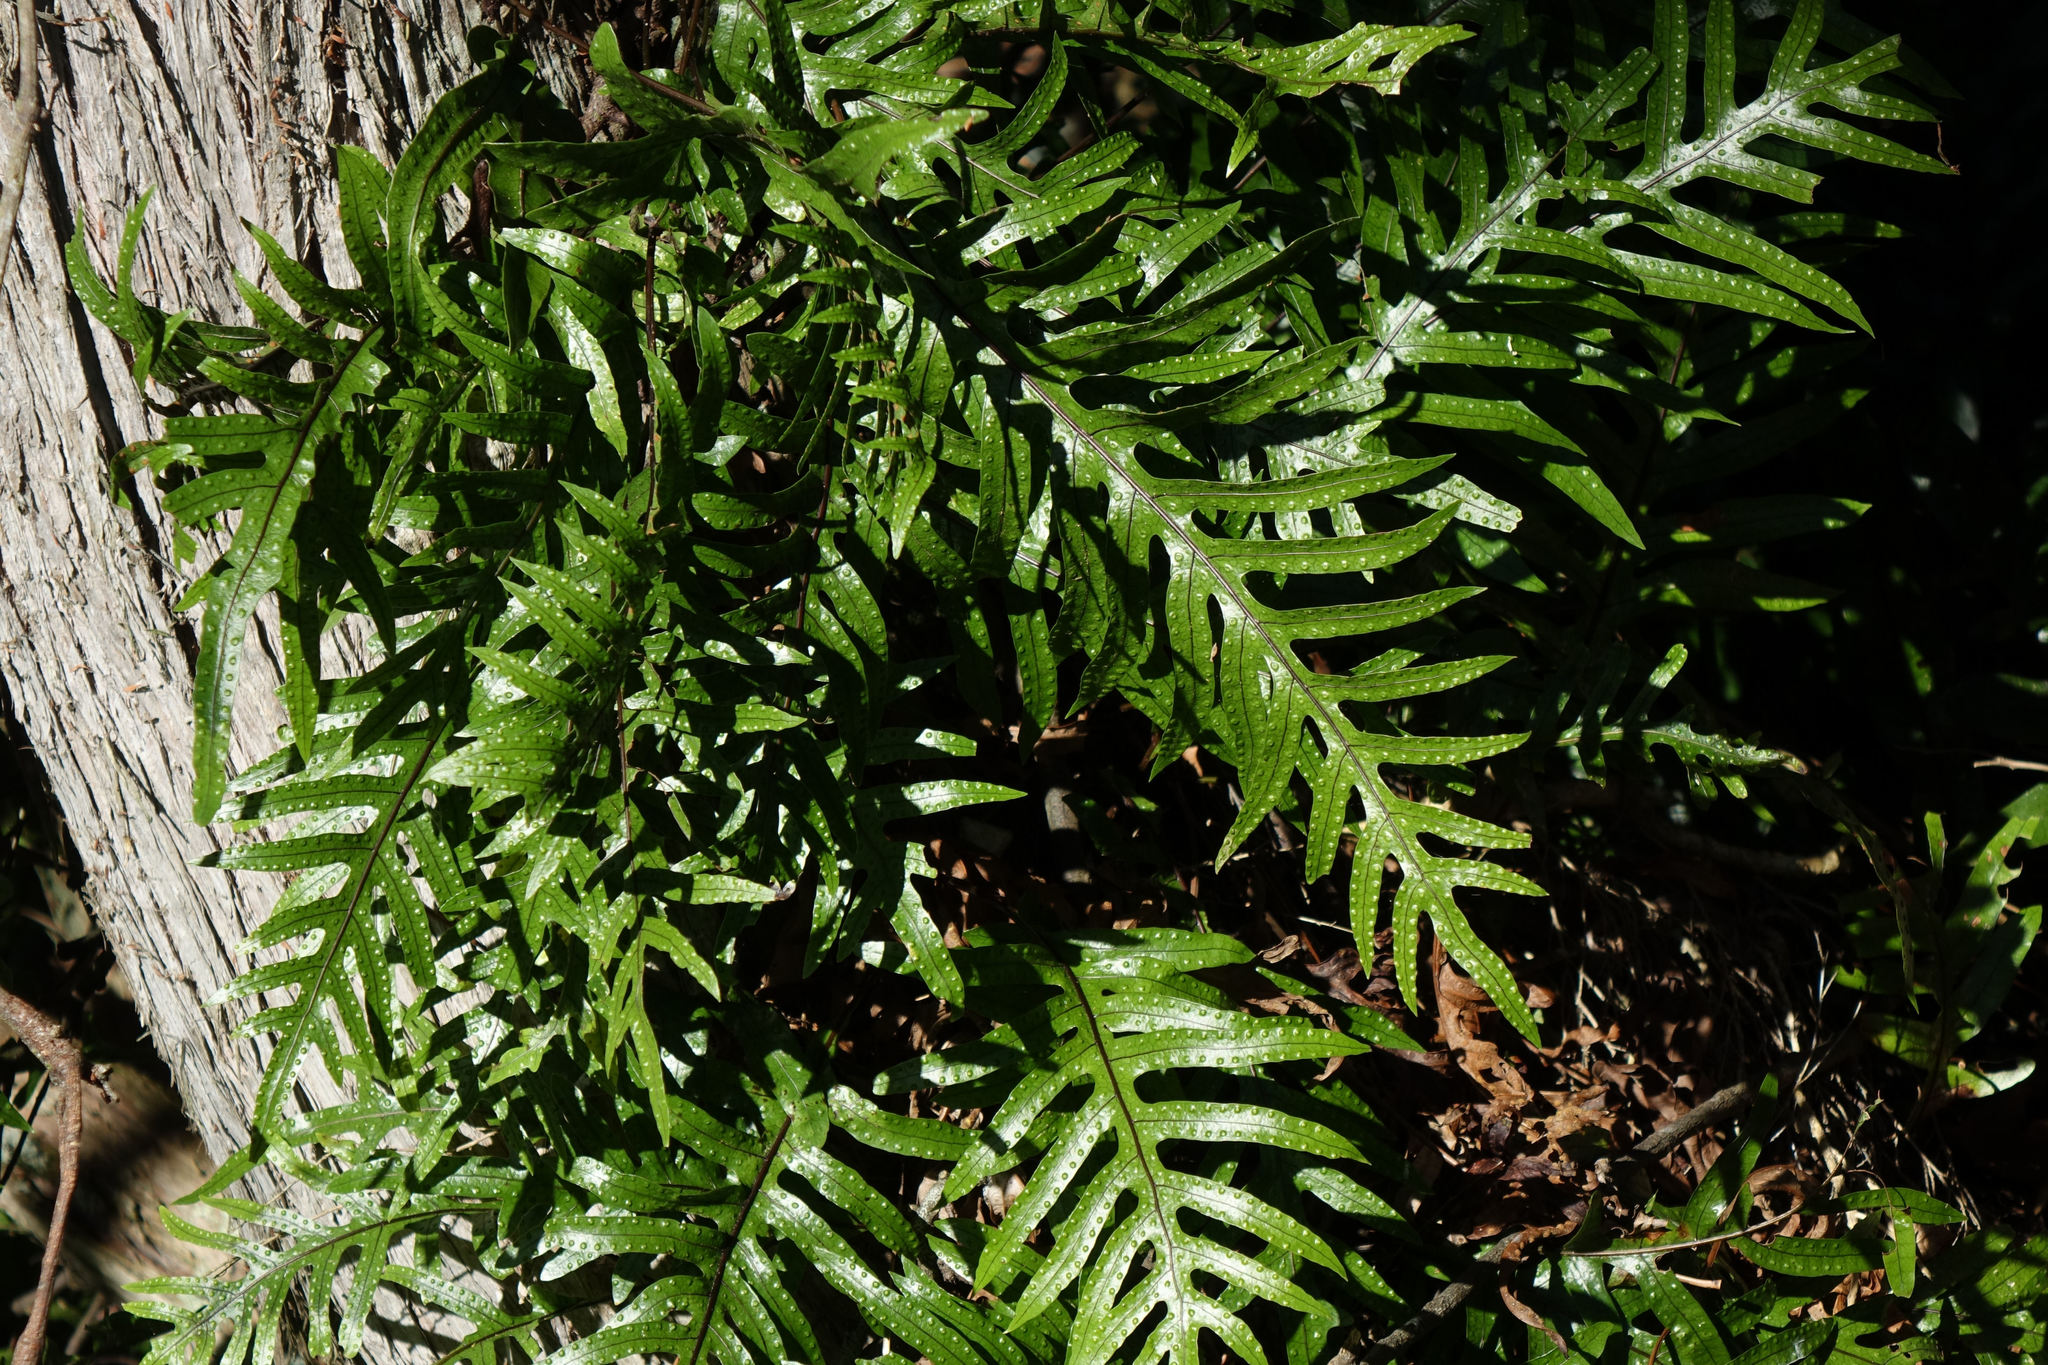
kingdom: Plantae
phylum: Tracheophyta
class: Polypodiopsida
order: Polypodiales
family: Polypodiaceae
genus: Lecanopteris
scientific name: Lecanopteris pustulata
